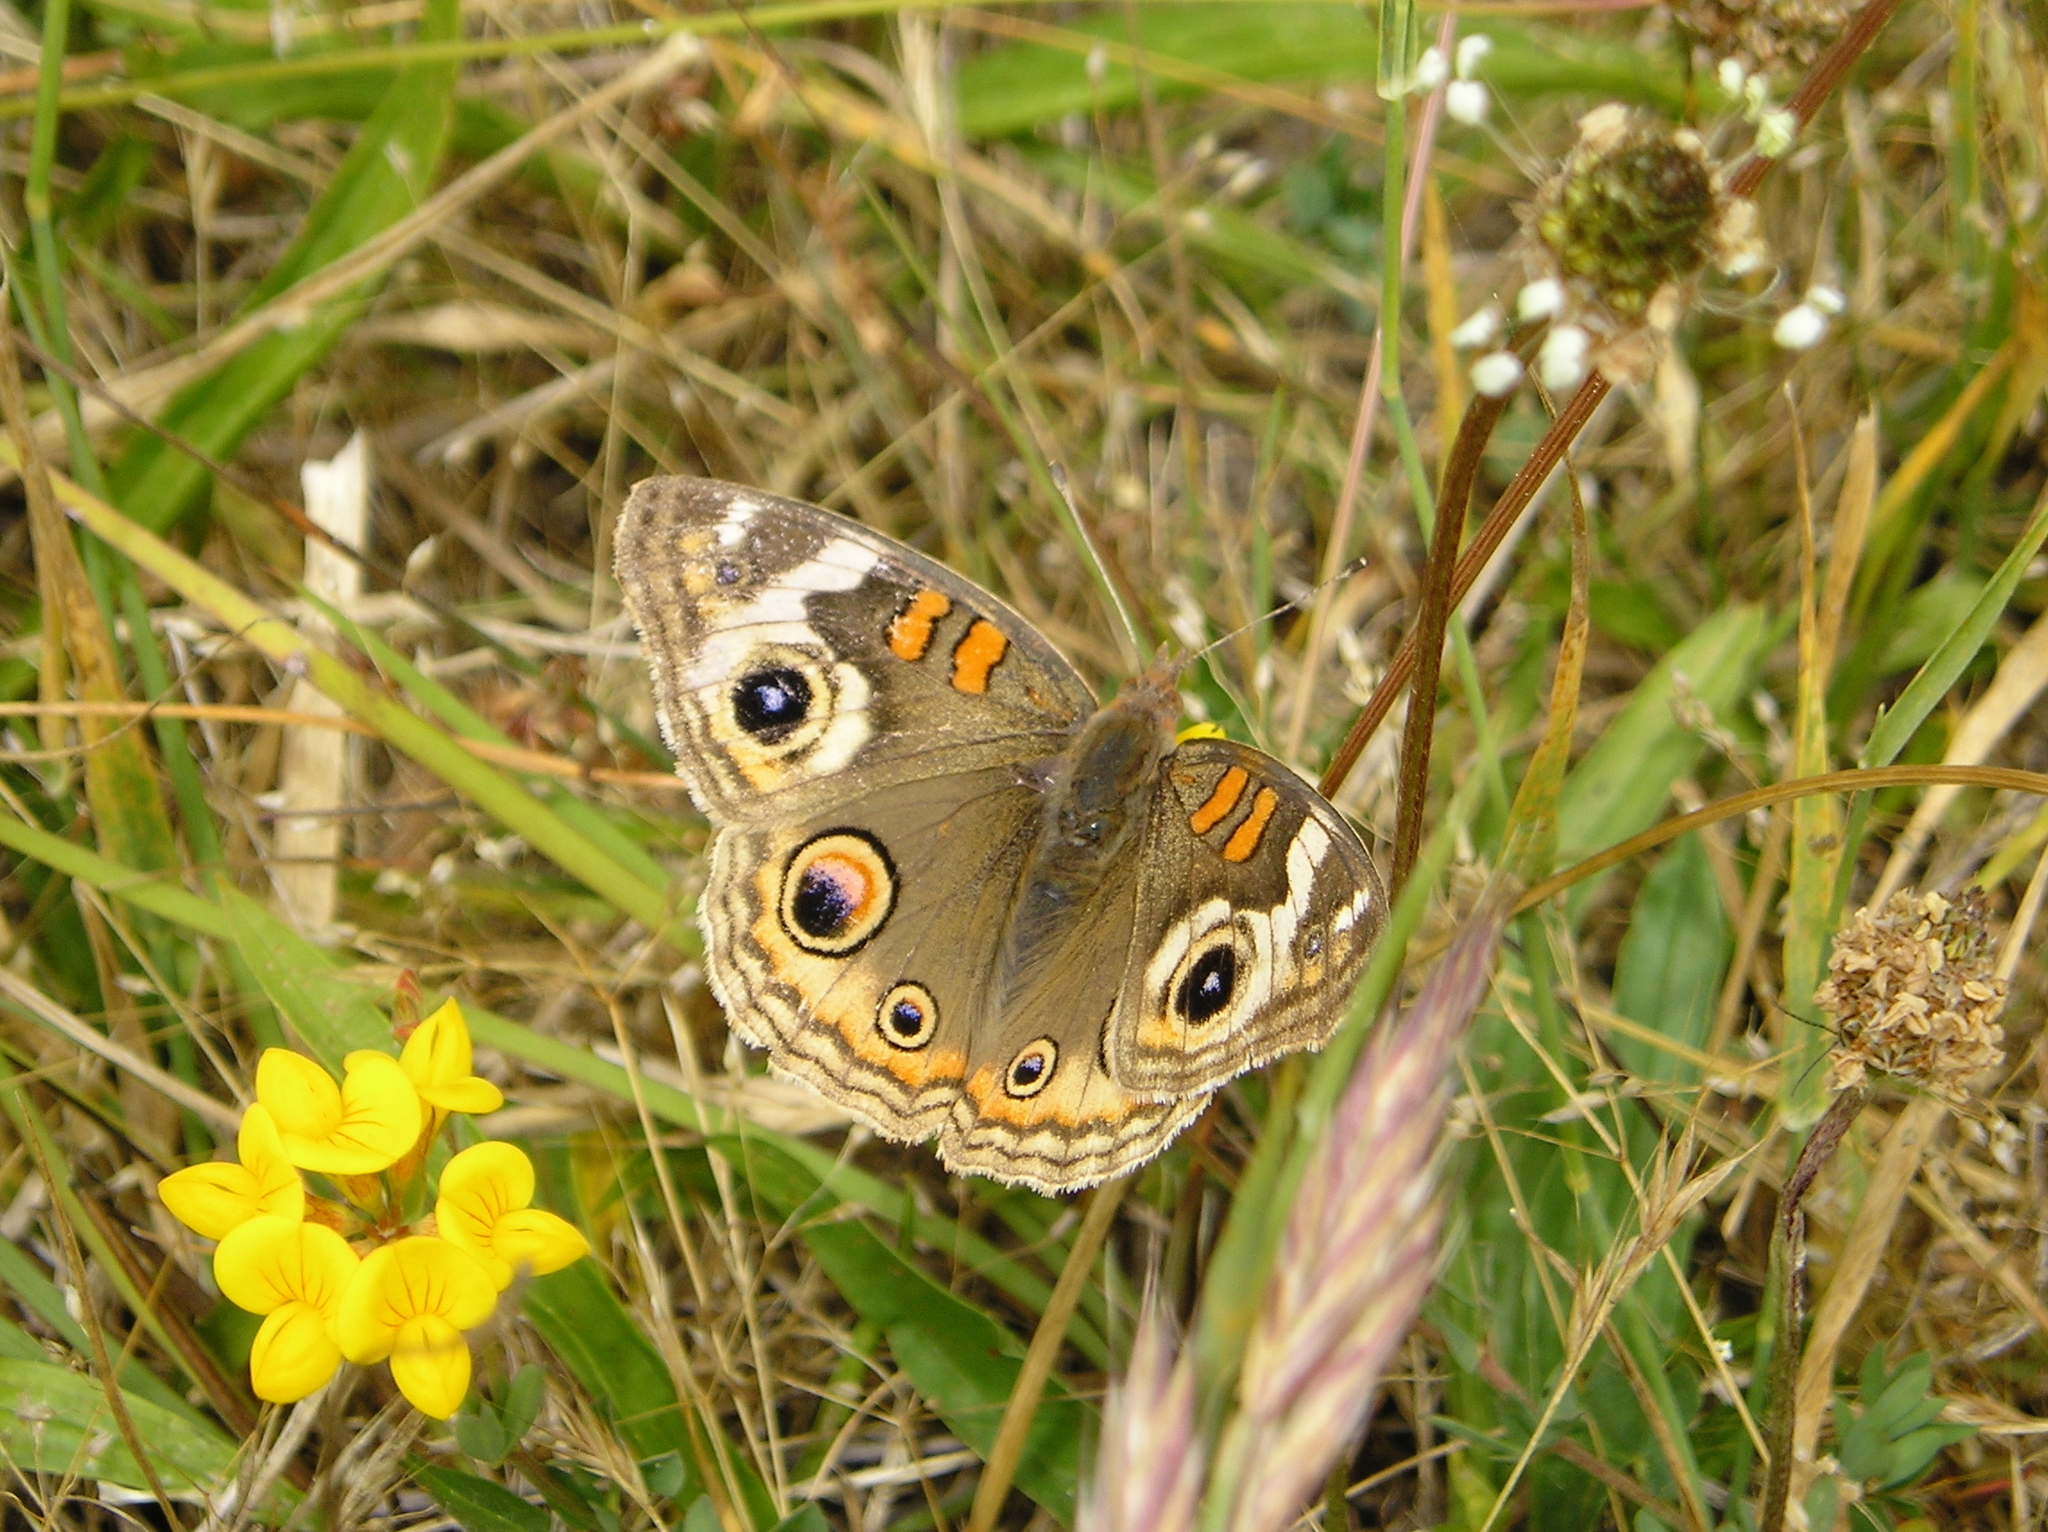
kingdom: Animalia
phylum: Arthropoda
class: Insecta
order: Lepidoptera
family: Nymphalidae
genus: Junonia
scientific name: Junonia grisea
